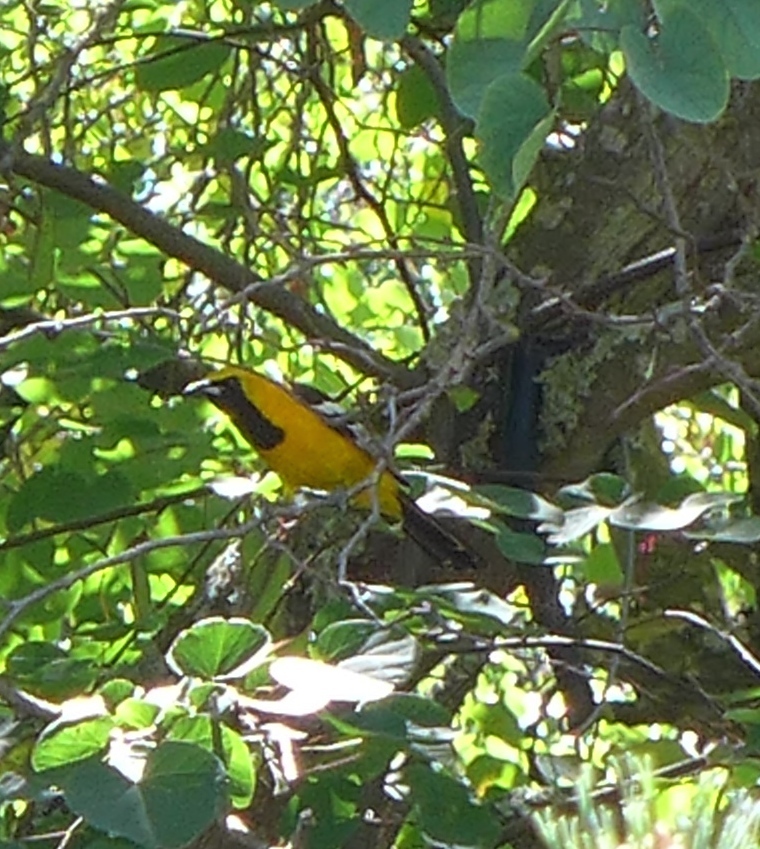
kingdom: Animalia
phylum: Chordata
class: Aves
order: Passeriformes
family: Icteridae
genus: Icterus
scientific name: Icterus cucullatus
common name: Hooded oriole
